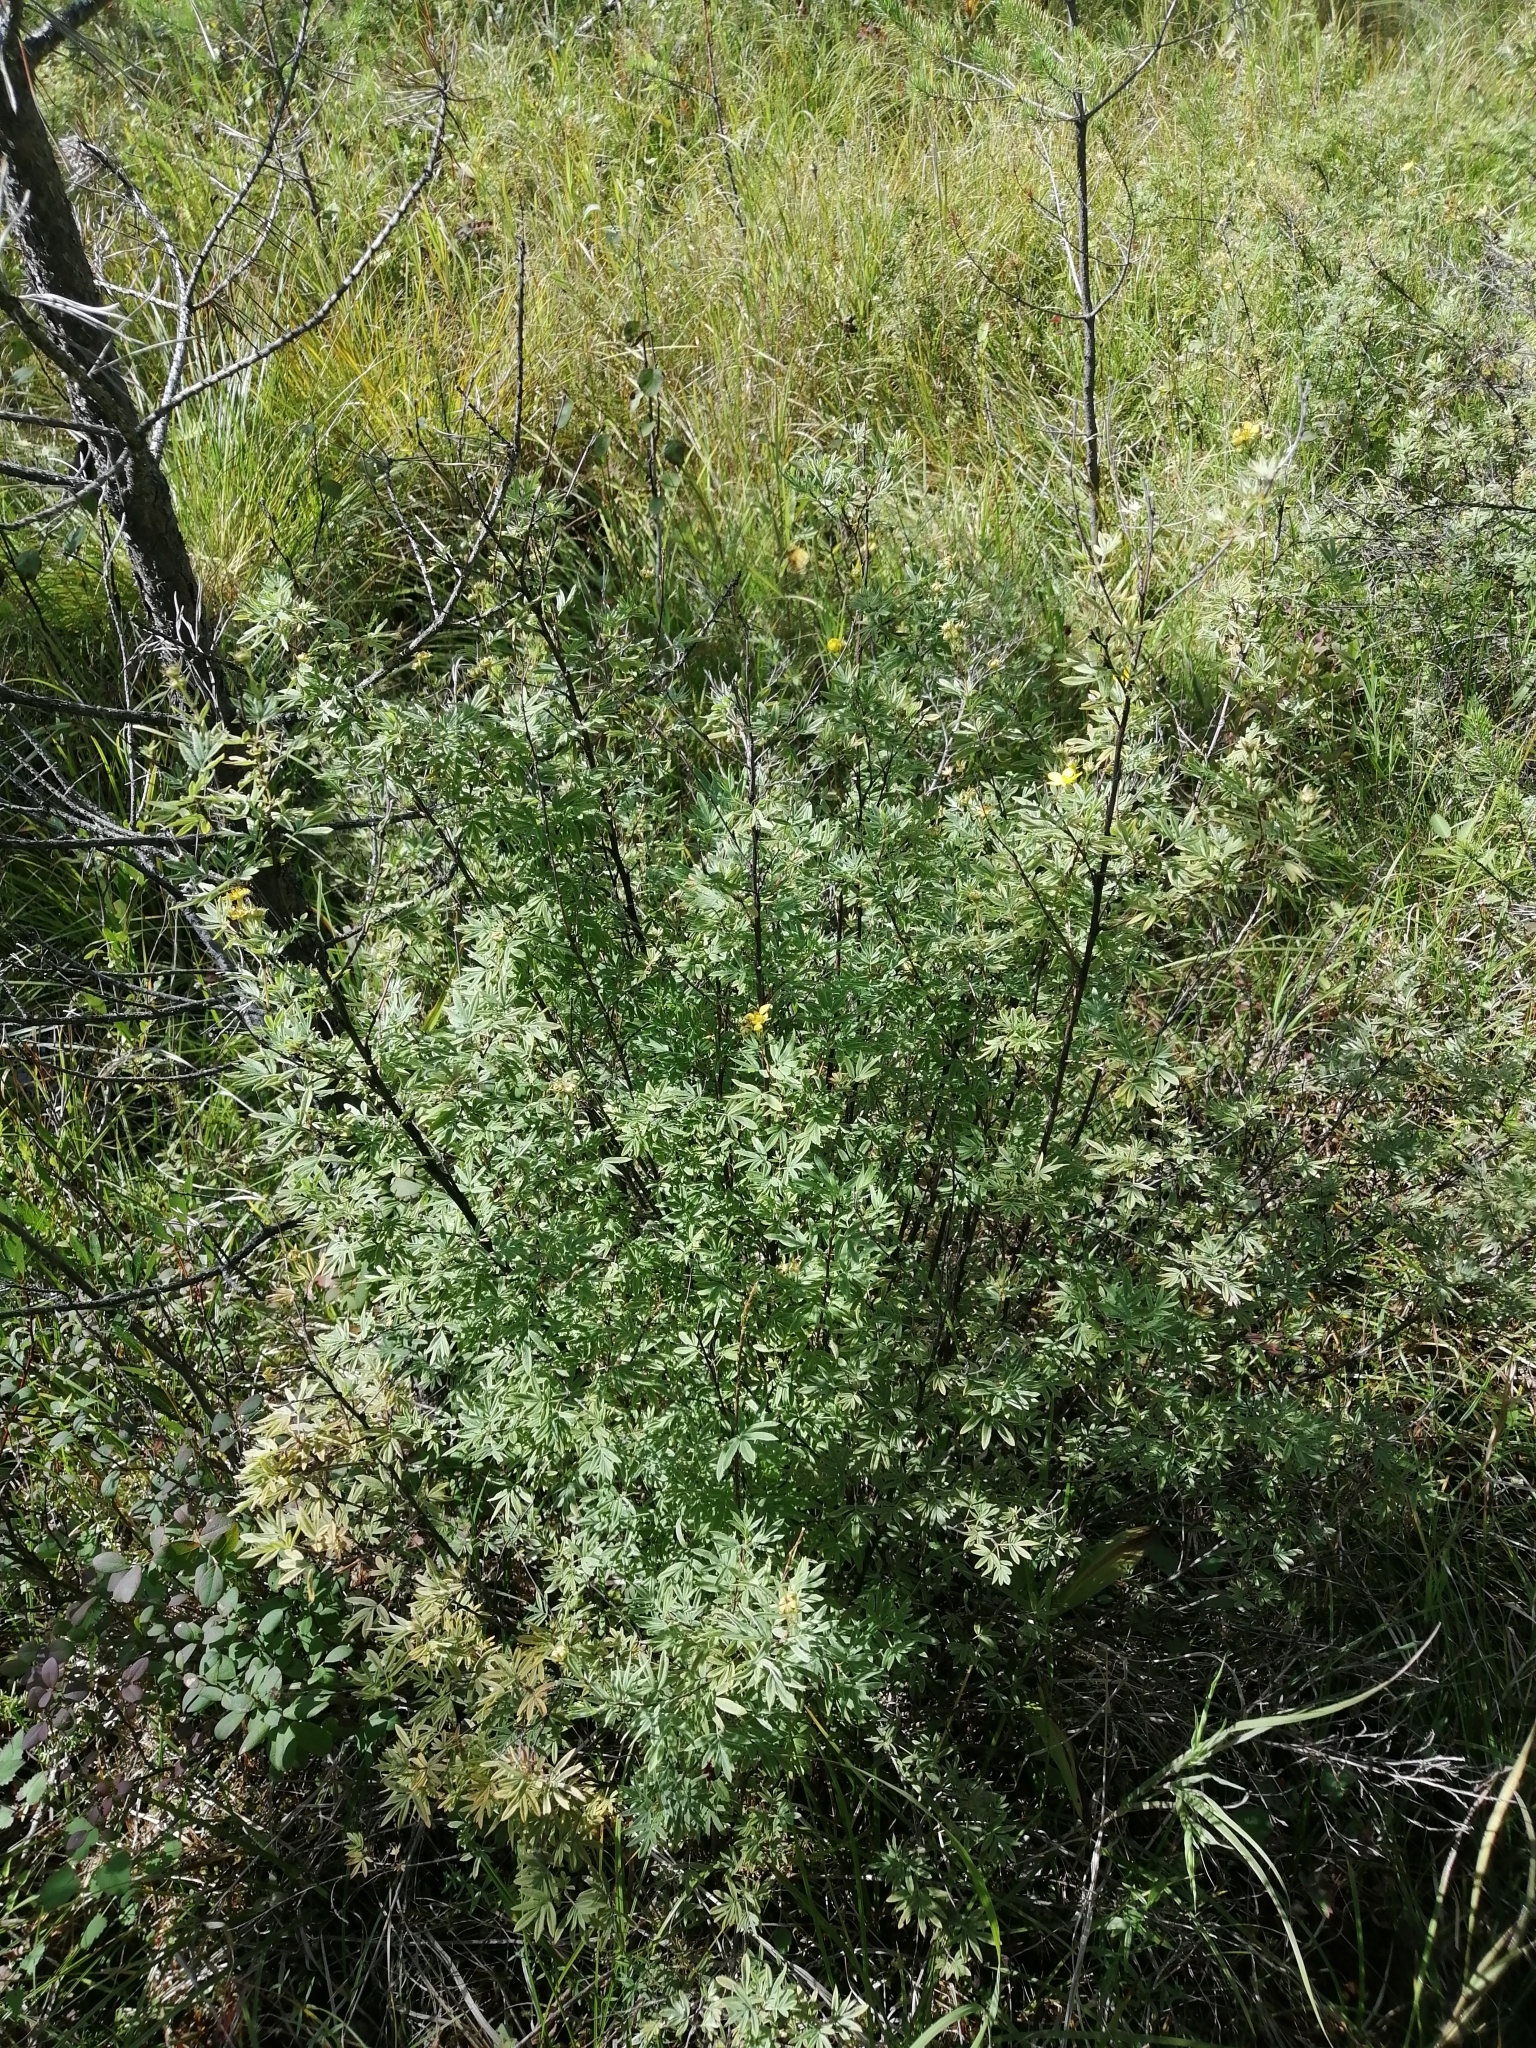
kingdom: Plantae
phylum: Tracheophyta
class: Magnoliopsida
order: Rosales
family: Rosaceae
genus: Dasiphora
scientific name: Dasiphora fruticosa
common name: Shrubby cinquefoil
